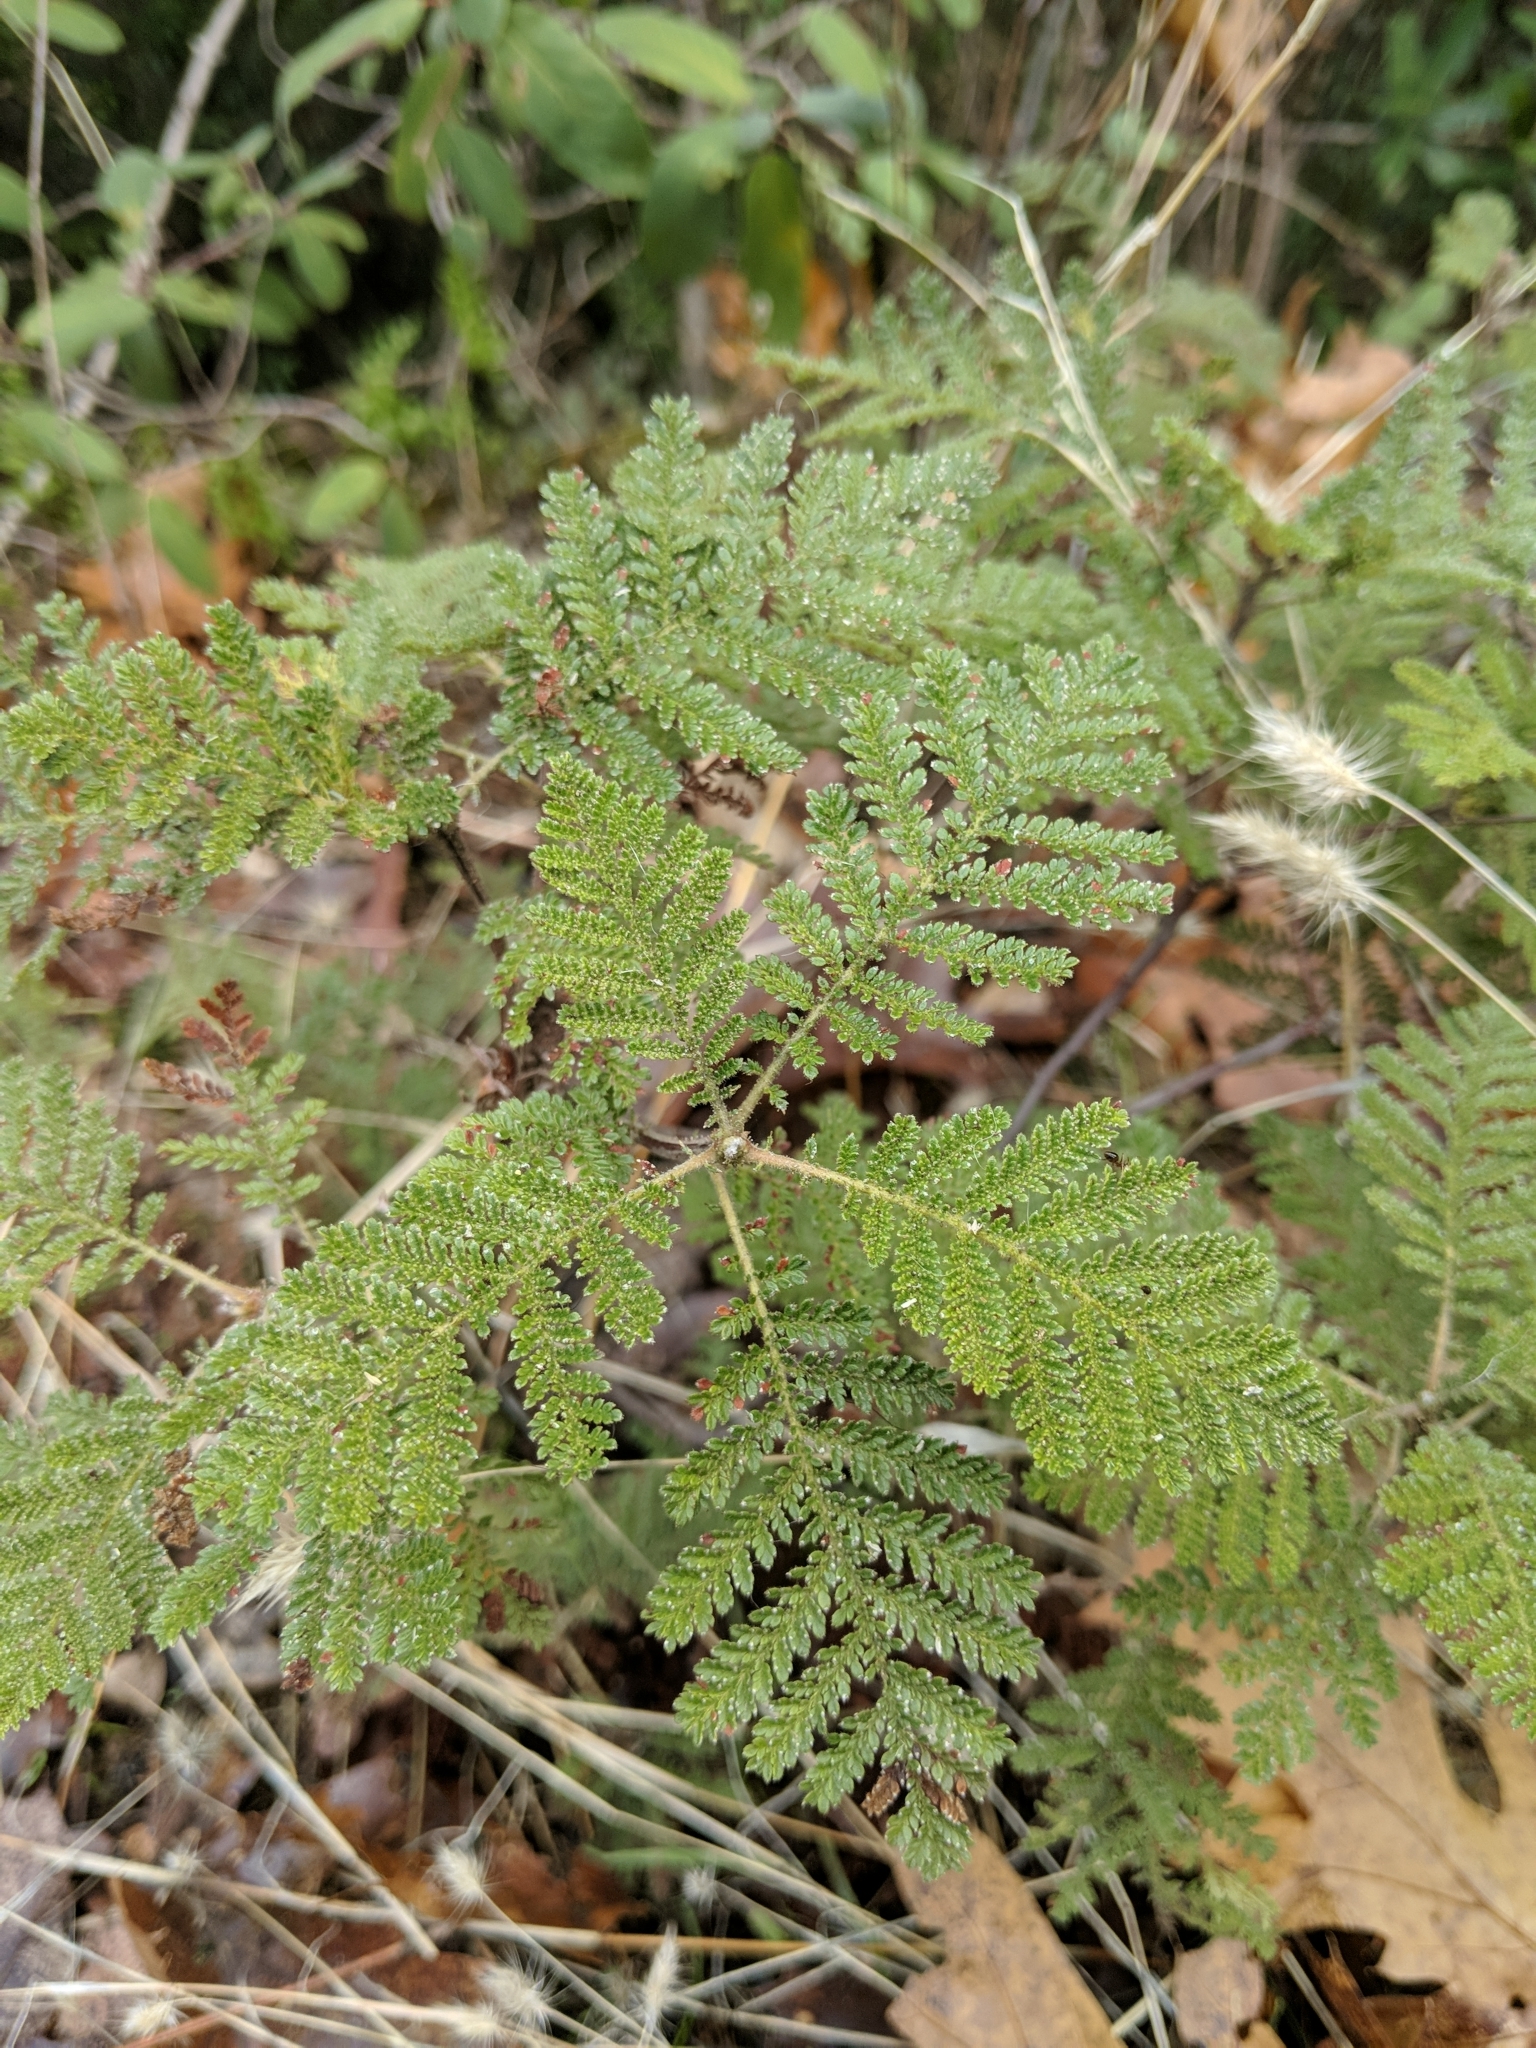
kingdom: Plantae
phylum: Tracheophyta
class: Magnoliopsida
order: Rosales
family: Rosaceae
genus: Chamaebatia
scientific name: Chamaebatia foliolosa
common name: Mountain misery
